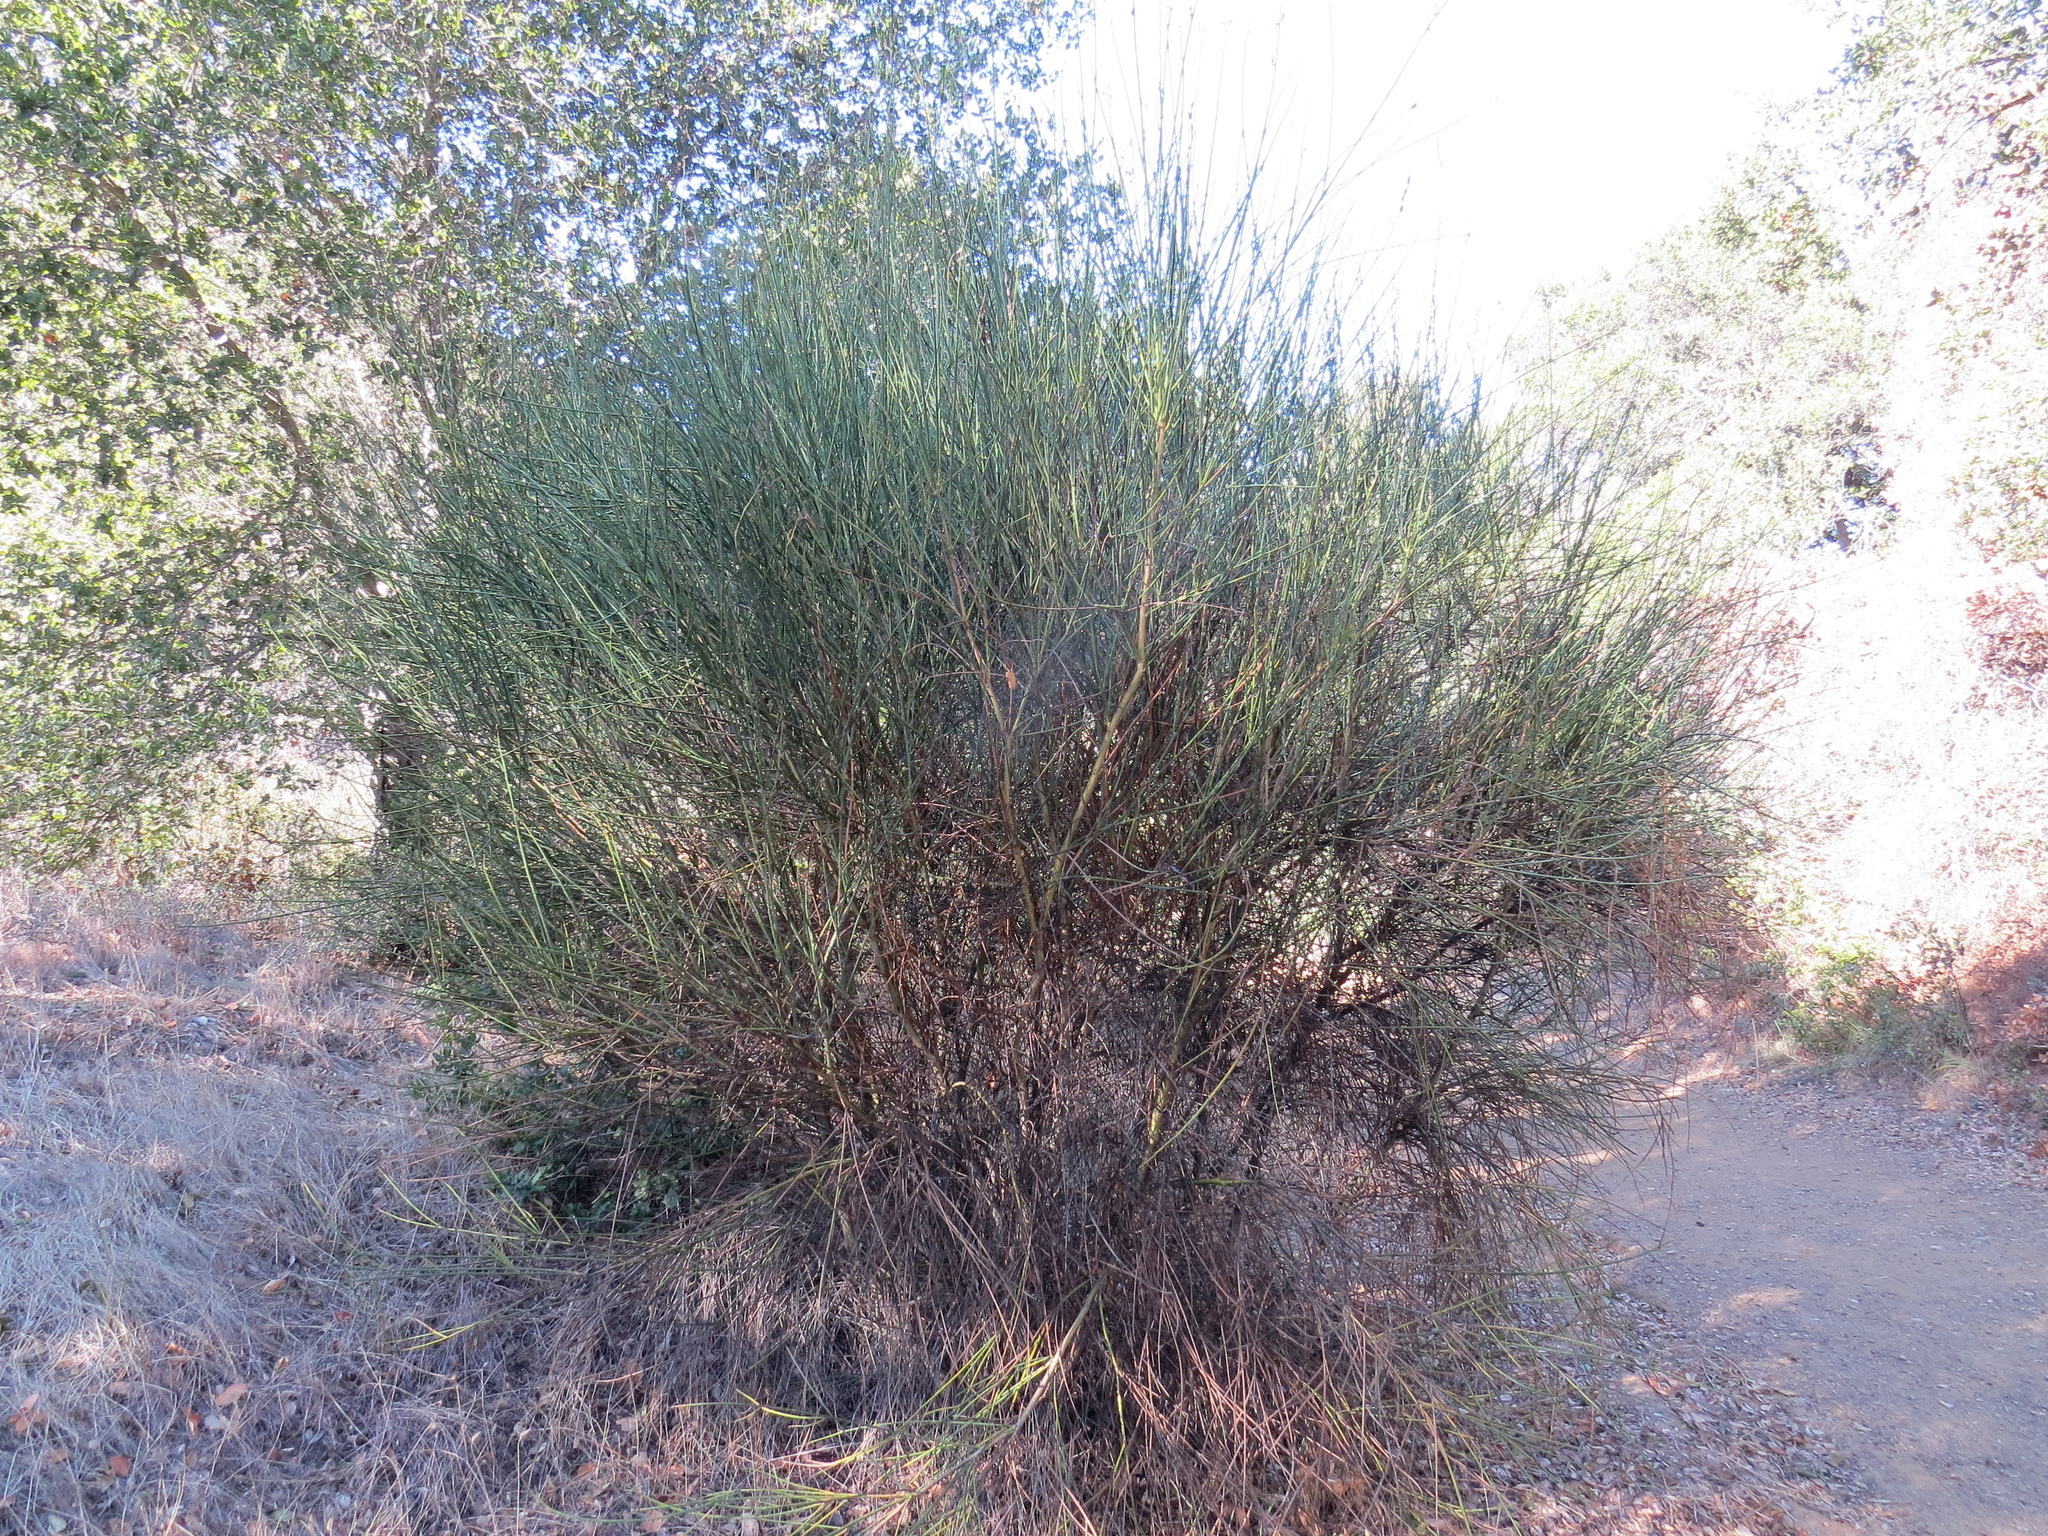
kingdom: Plantae
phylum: Tracheophyta
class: Magnoliopsida
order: Fabales
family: Fabaceae
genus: Spartium
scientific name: Spartium junceum
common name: Spanish broom
